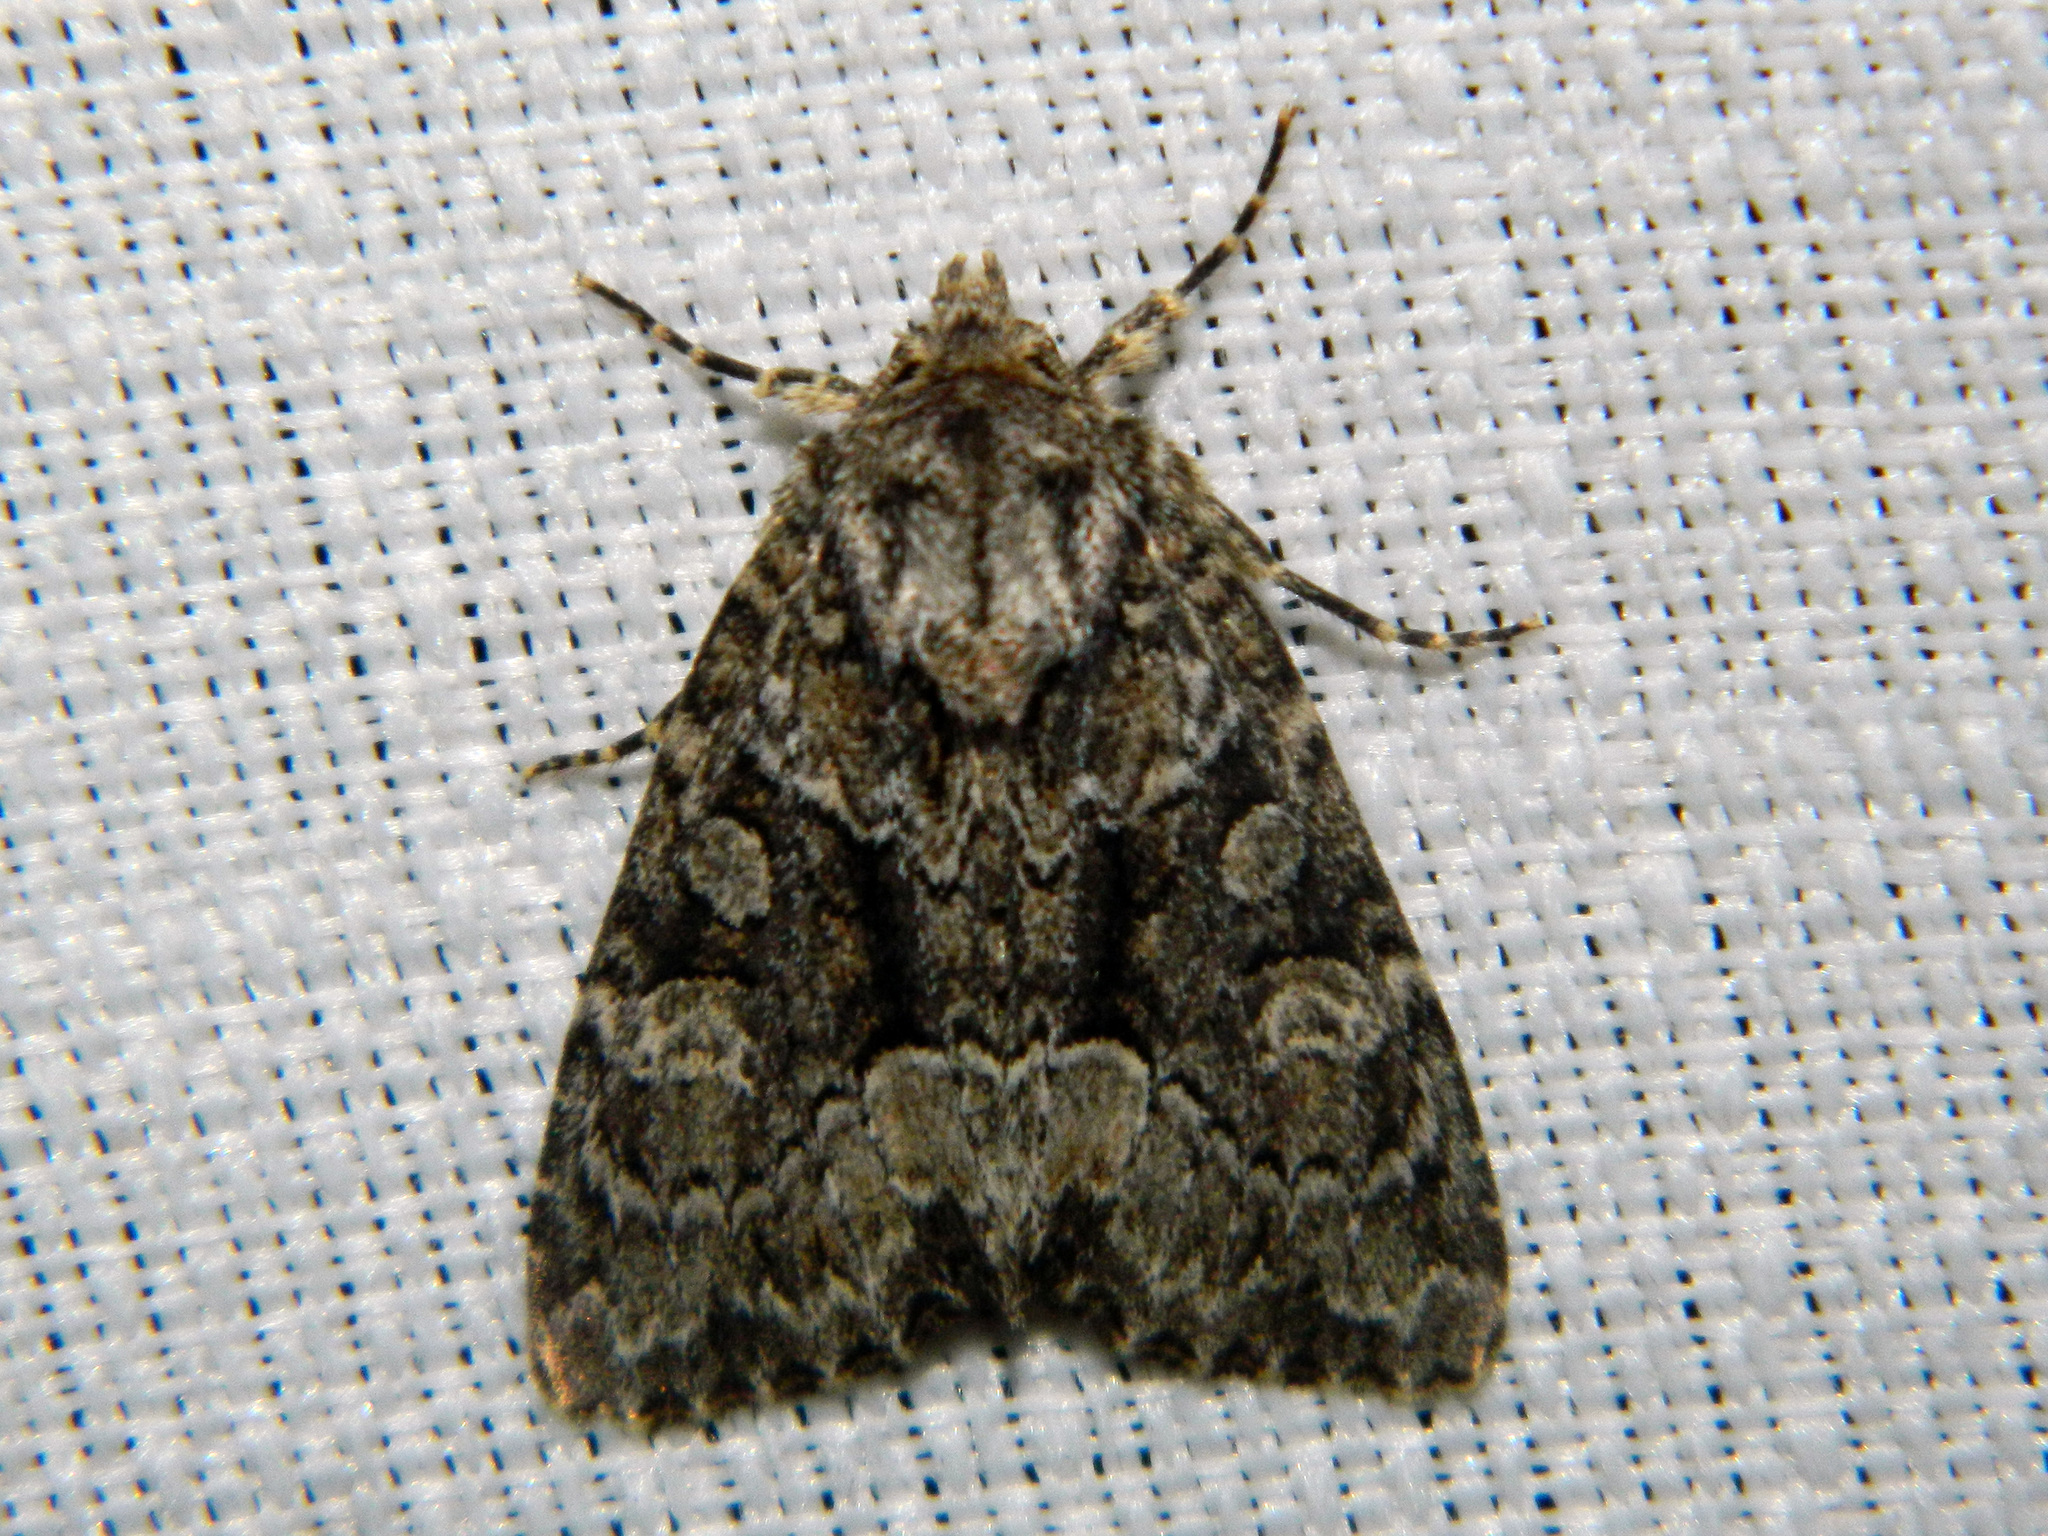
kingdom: Animalia
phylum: Arthropoda
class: Insecta
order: Lepidoptera
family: Noctuidae
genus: Platypolia
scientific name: Platypolia mactata
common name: Adorable brocade moth
